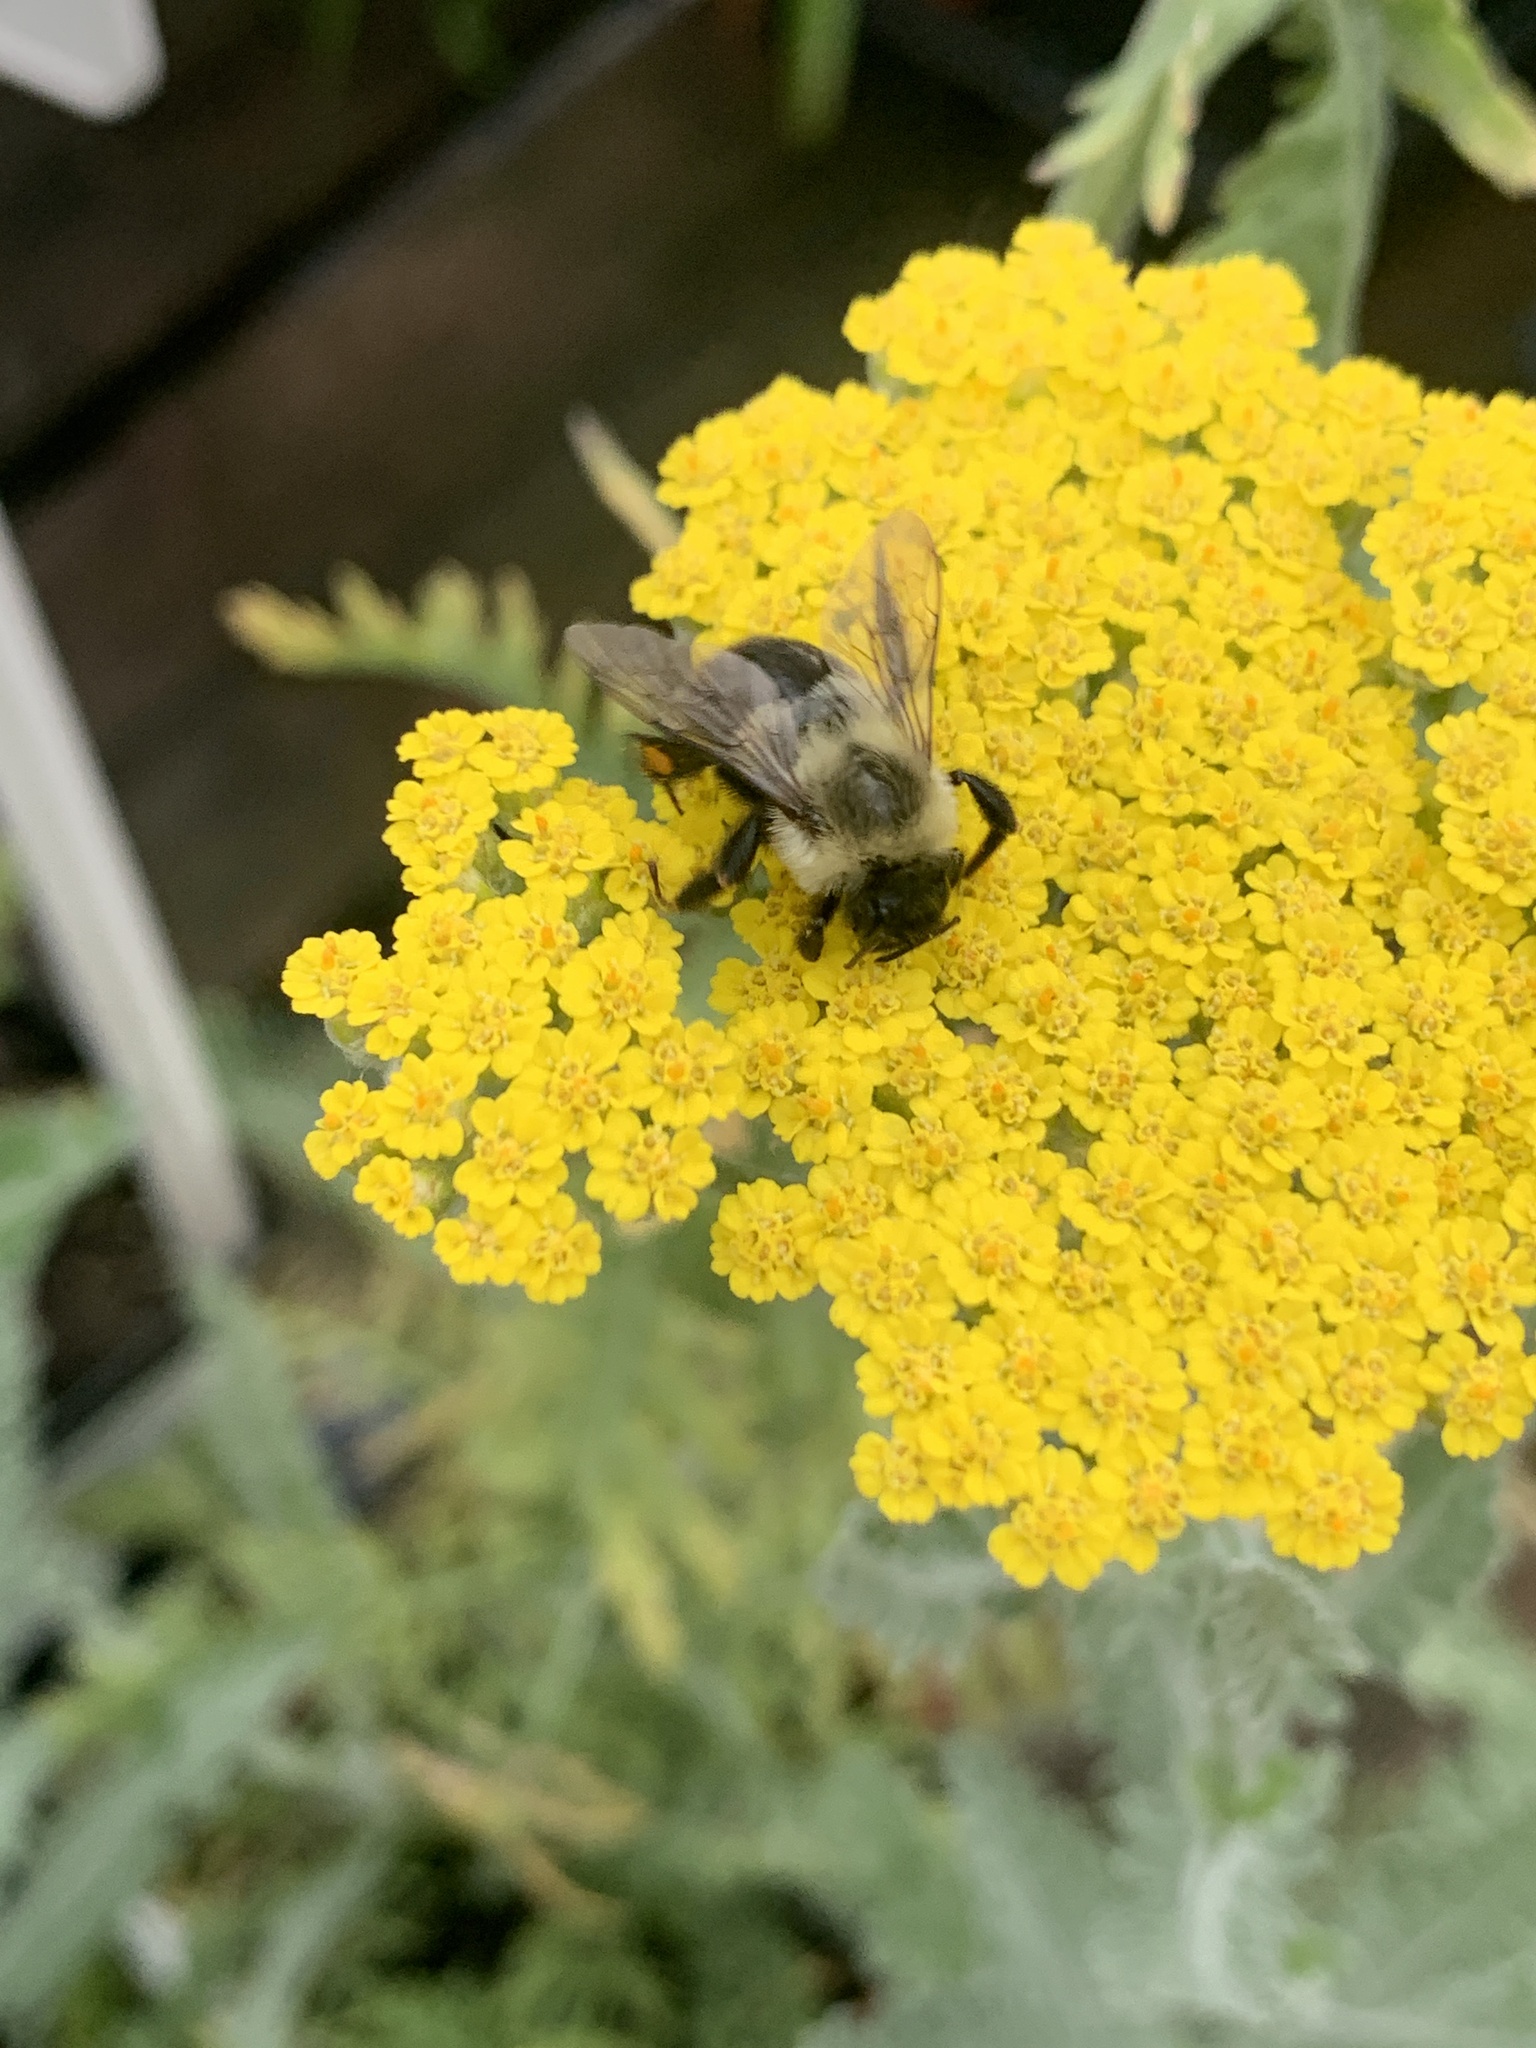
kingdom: Animalia
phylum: Arthropoda
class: Insecta
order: Hymenoptera
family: Apidae
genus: Bombus
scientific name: Bombus impatiens
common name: Common eastern bumble bee
